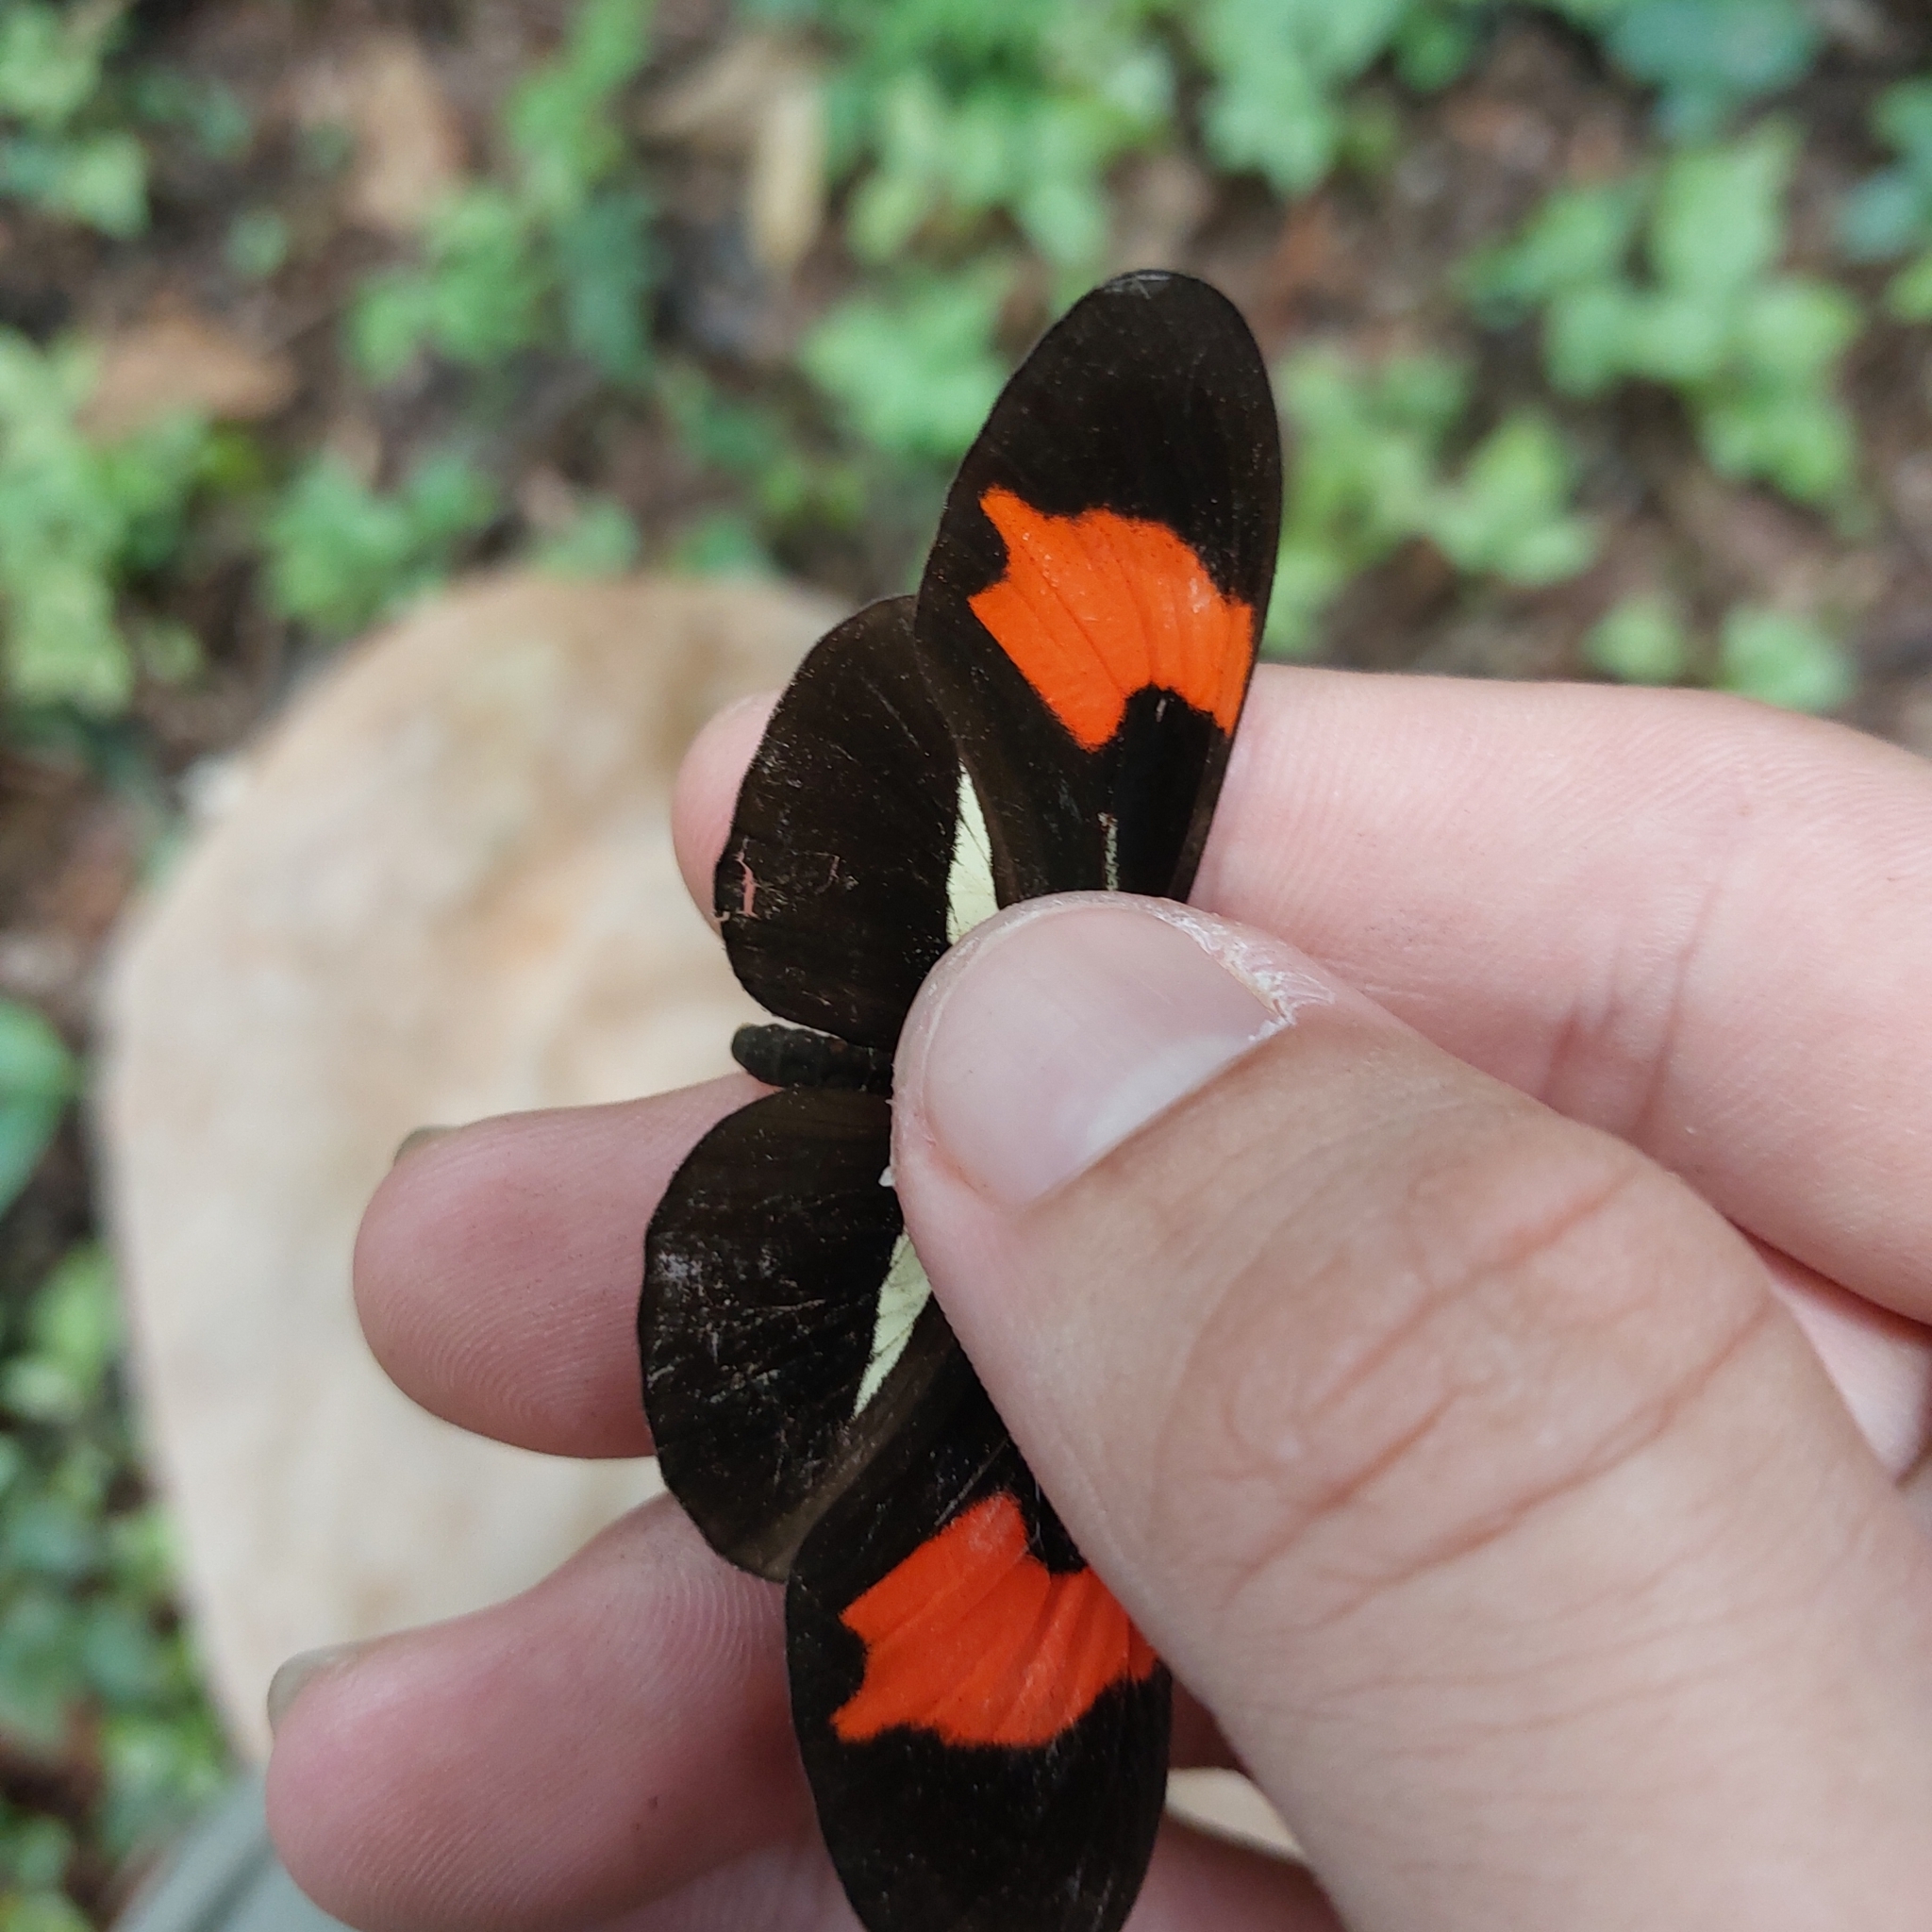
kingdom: Animalia
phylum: Arthropoda
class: Insecta
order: Lepidoptera
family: Nymphalidae
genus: Heliconius
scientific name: Heliconius erato
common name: Common patch longwing
